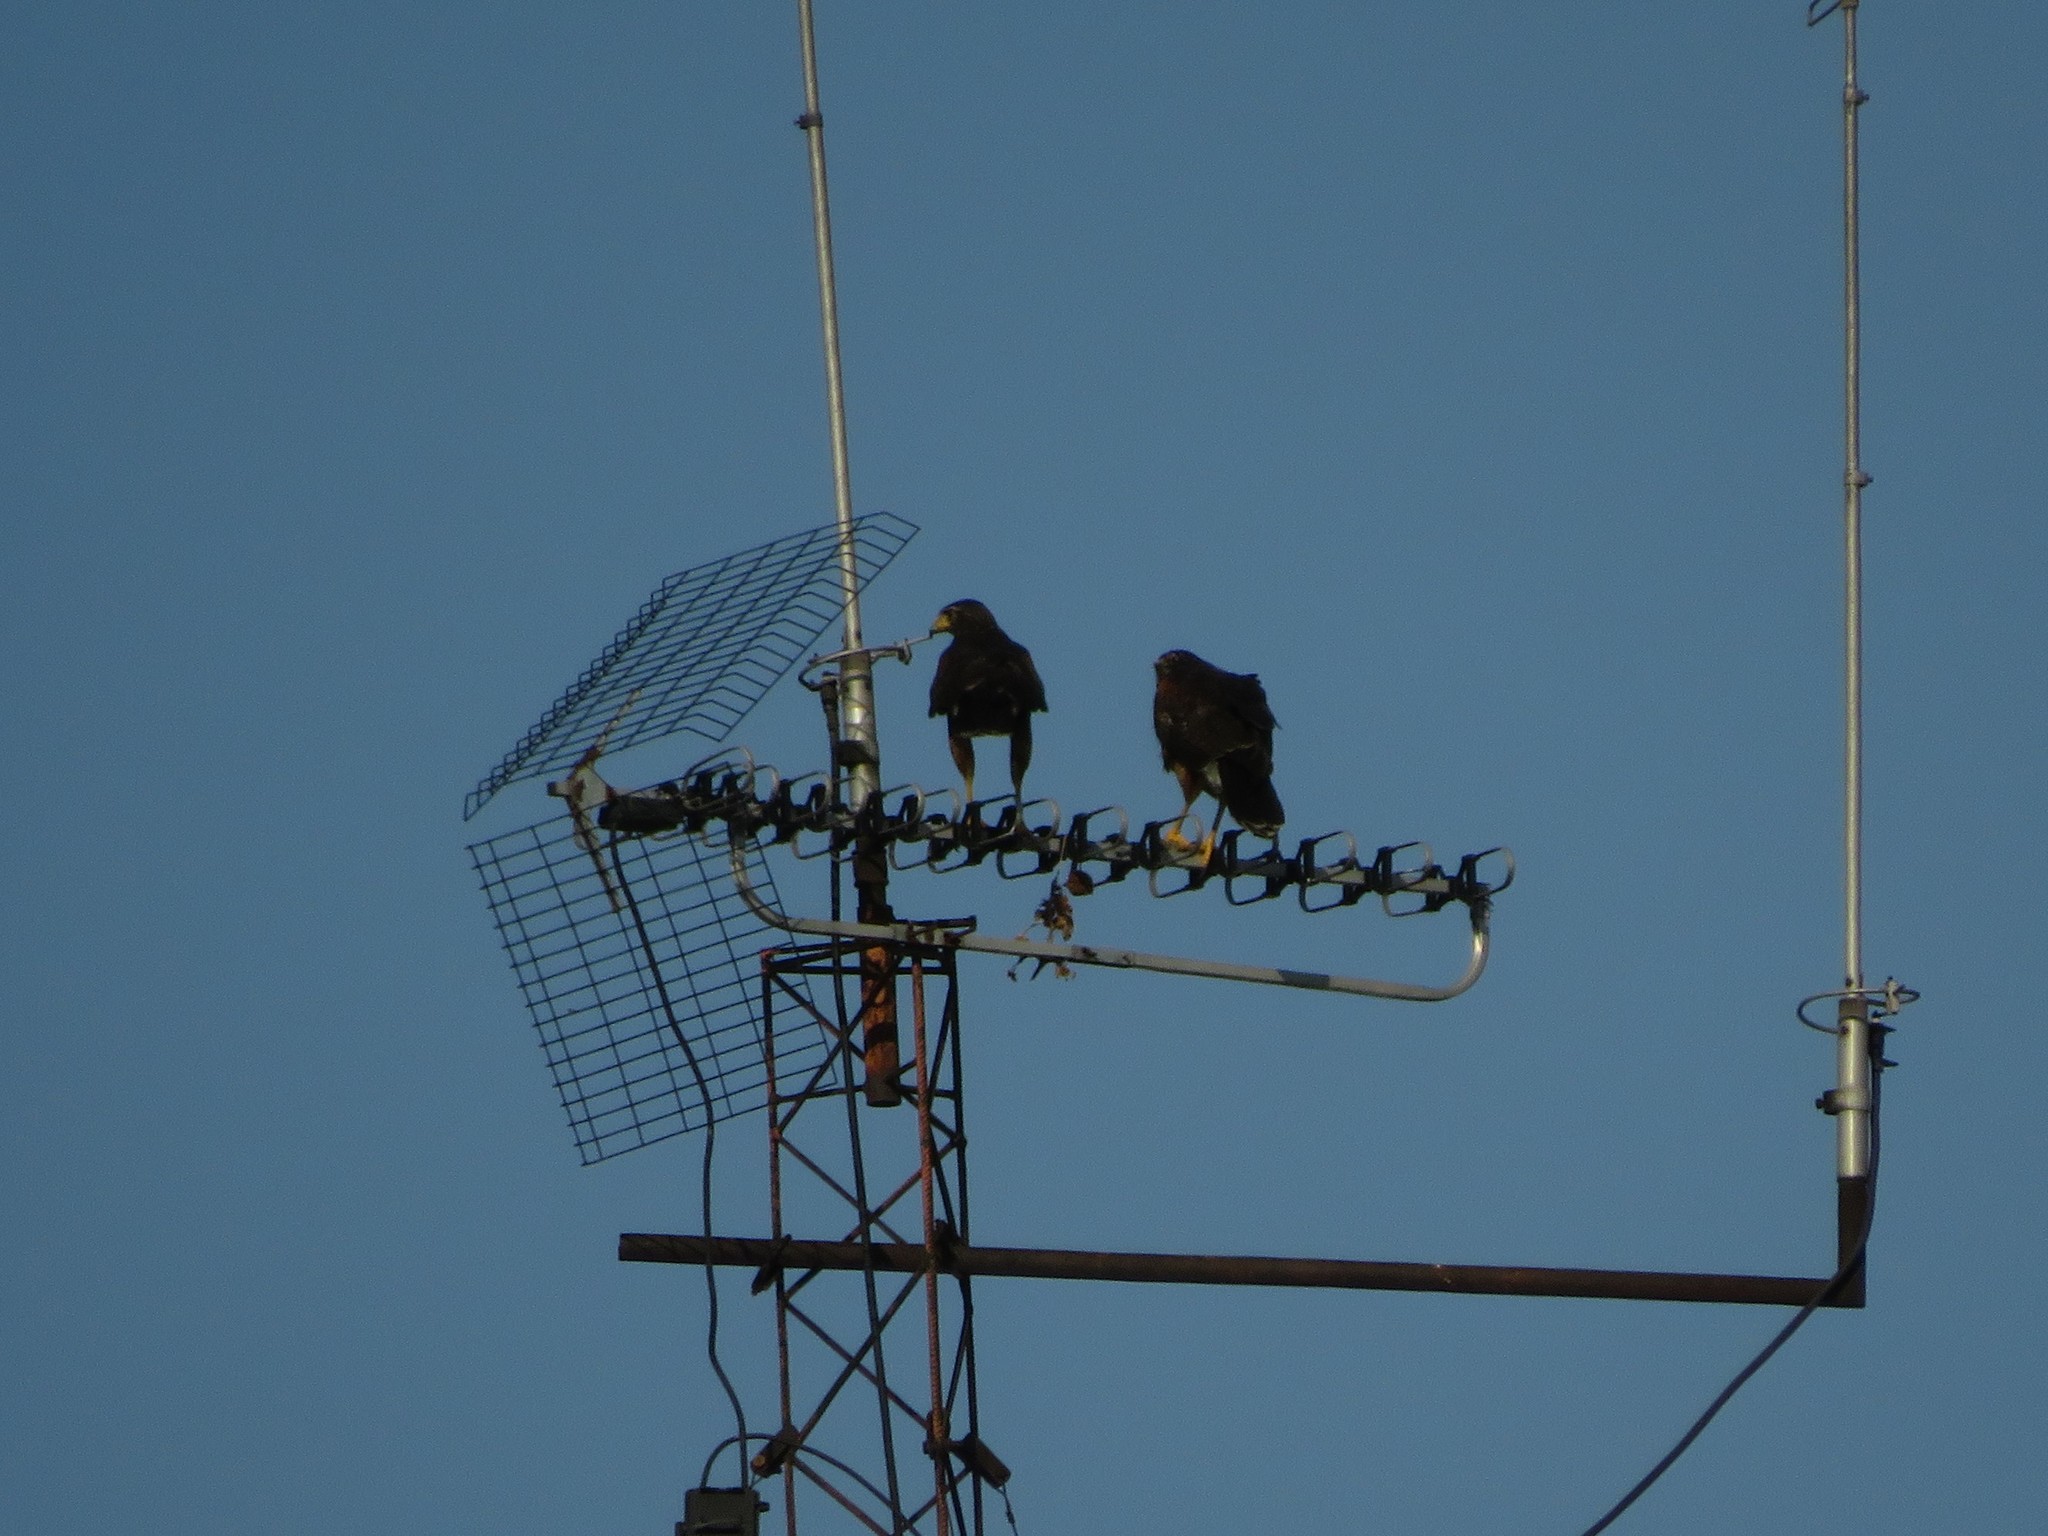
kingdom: Animalia
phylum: Chordata
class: Aves
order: Accipitriformes
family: Accipitridae
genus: Parabuteo
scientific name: Parabuteo unicinctus
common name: Harris's hawk
